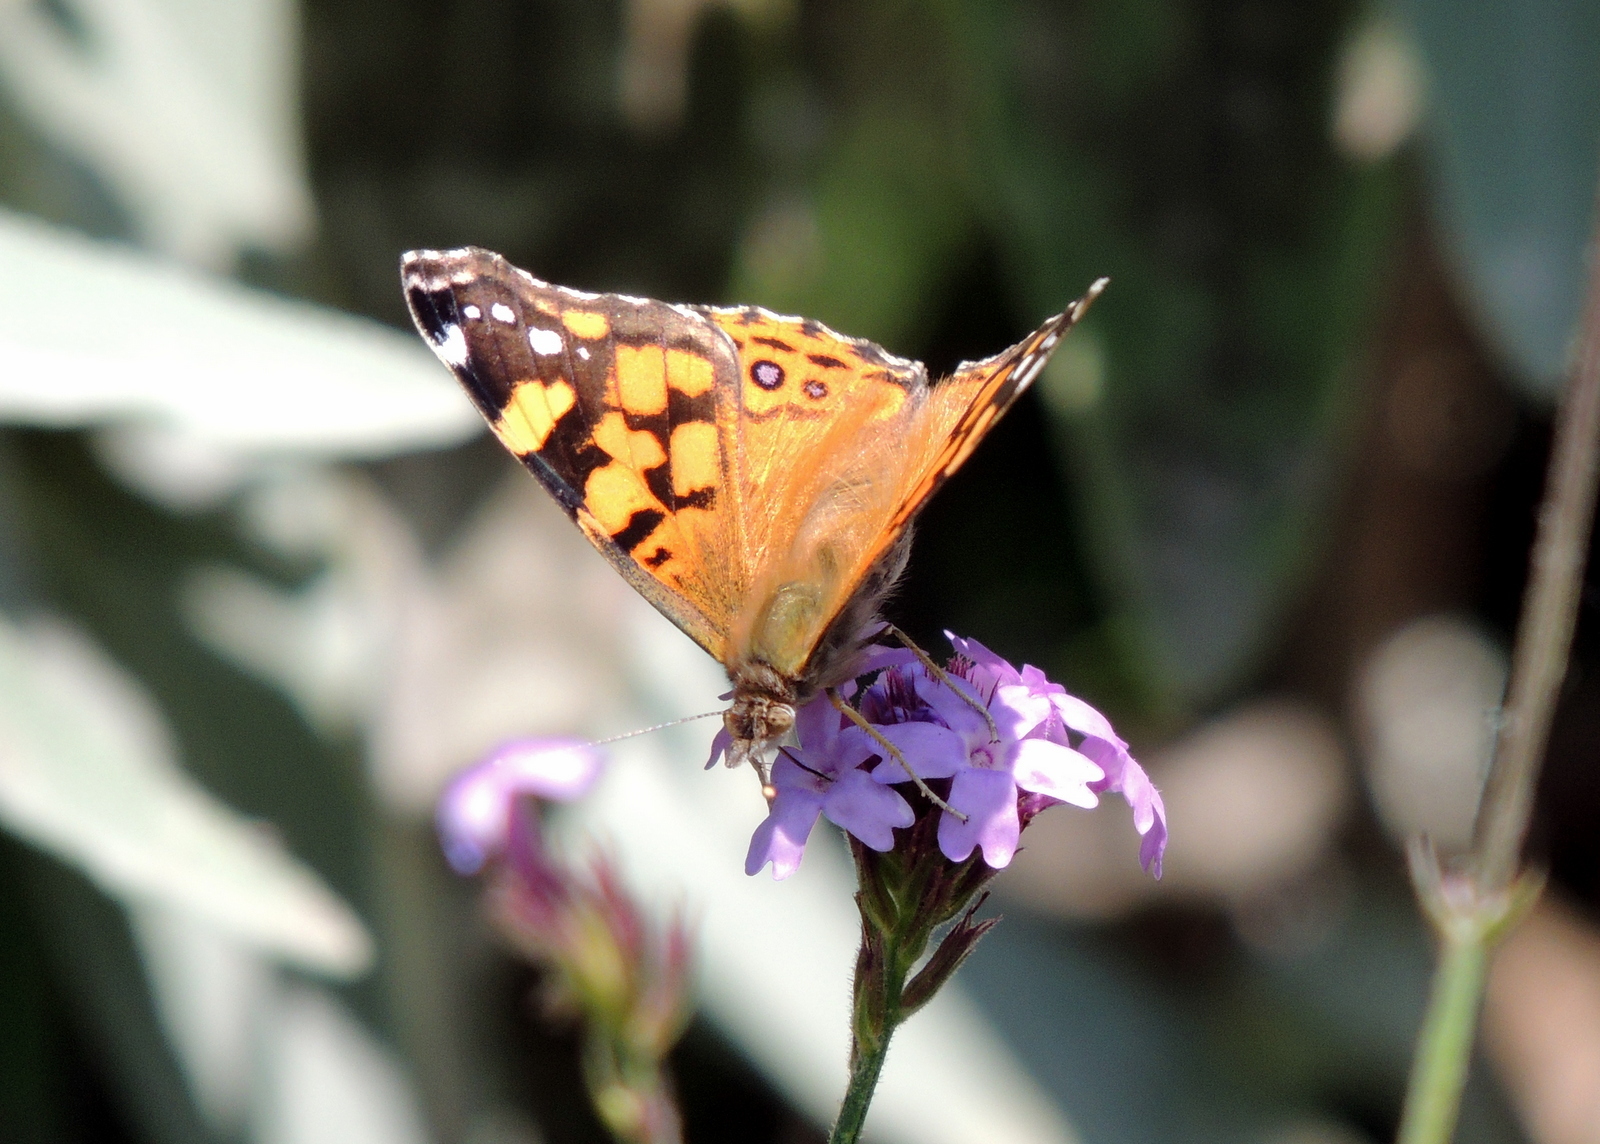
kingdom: Animalia
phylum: Arthropoda
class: Insecta
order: Lepidoptera
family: Nymphalidae
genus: Vanessa
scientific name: Vanessa annabella
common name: West coast lady
